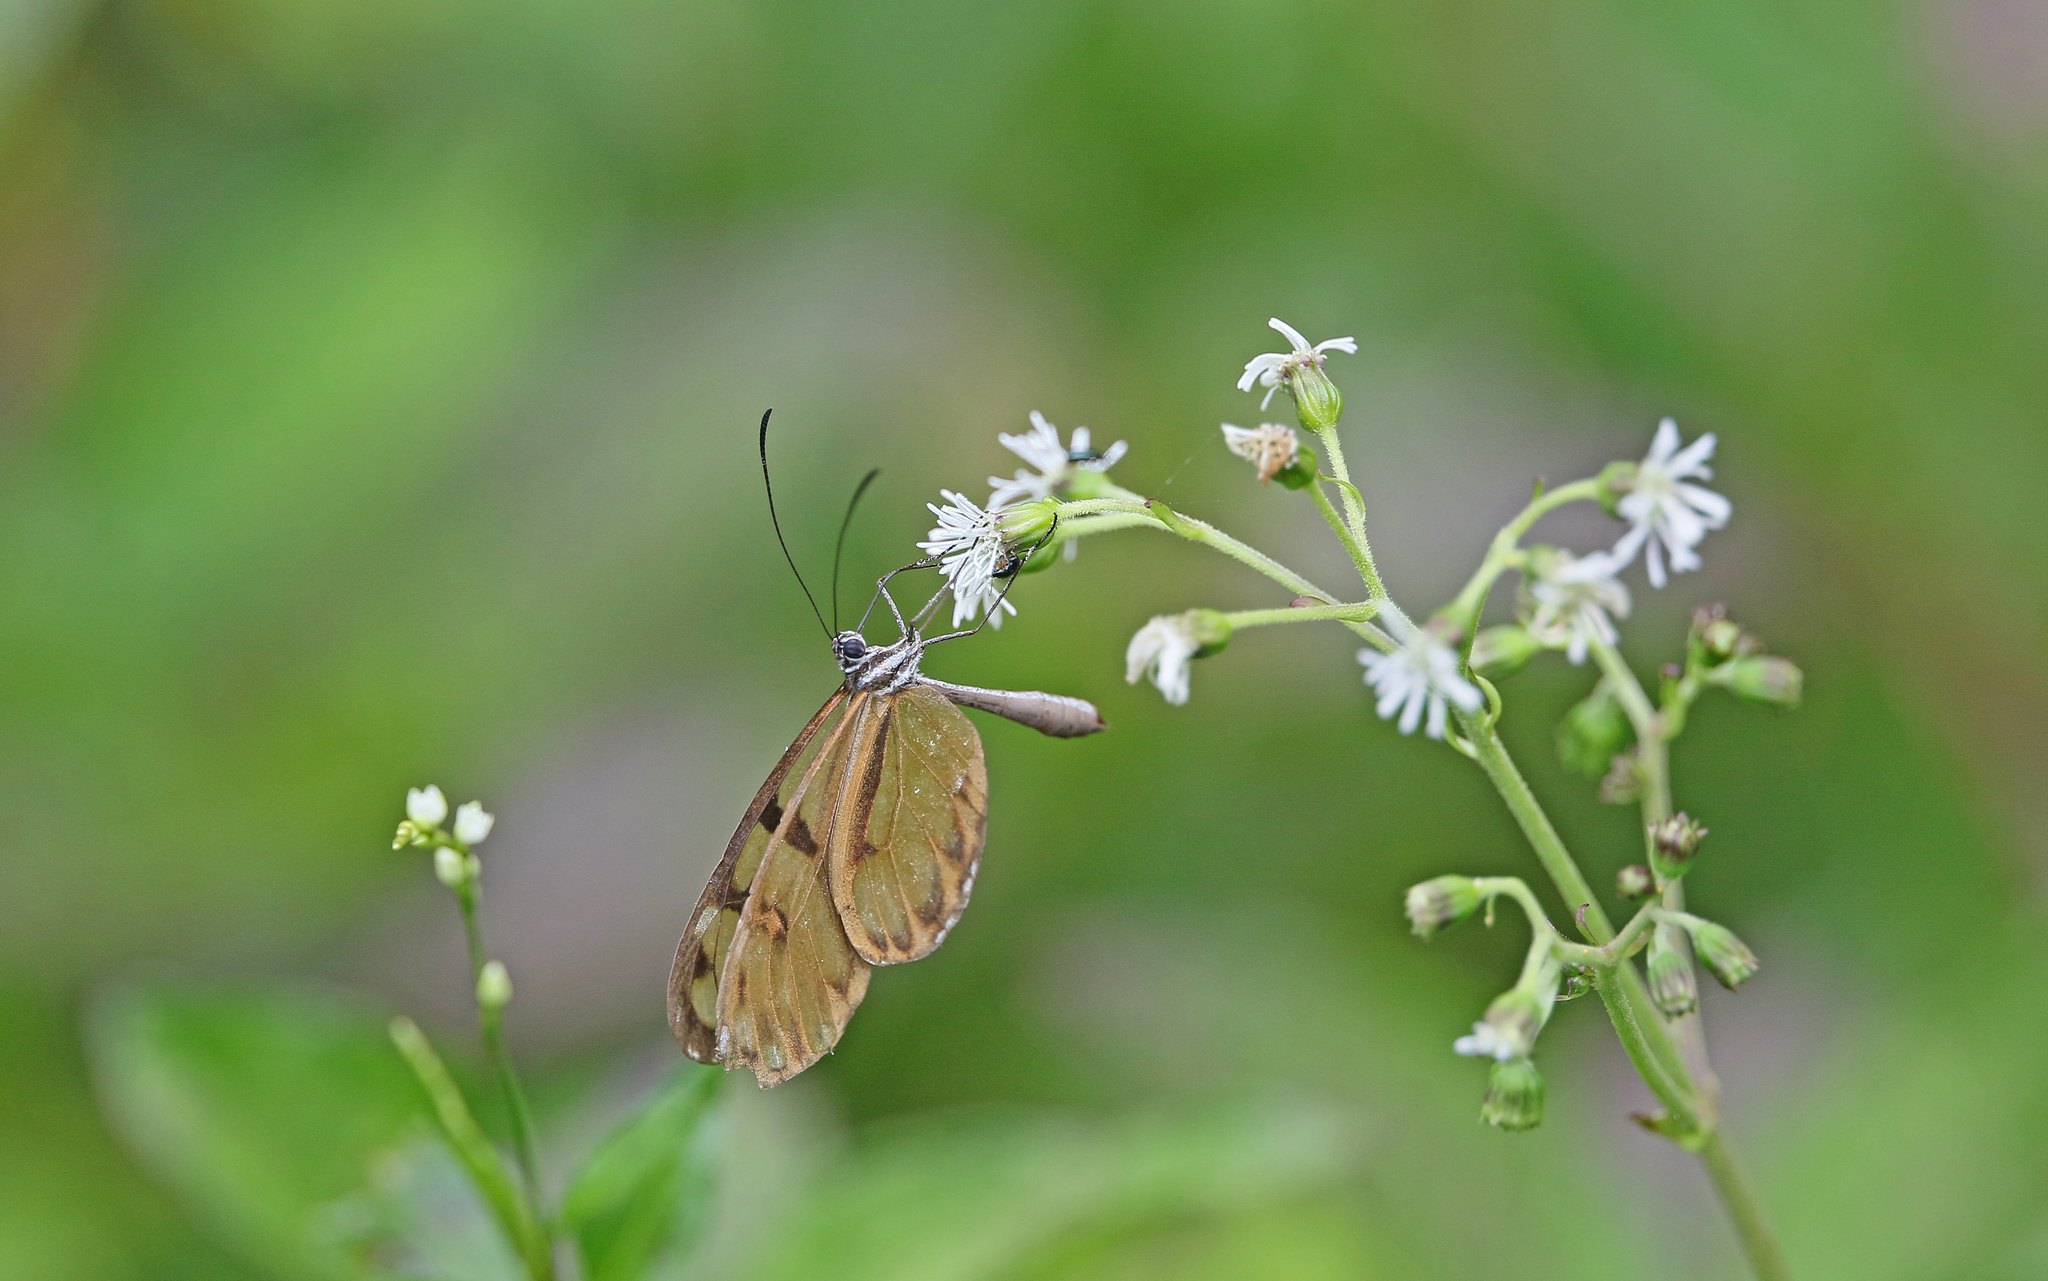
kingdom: Animalia
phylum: Arthropoda
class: Insecta
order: Lepidoptera
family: Nymphalidae
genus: Oleria
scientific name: Oleria baizana
